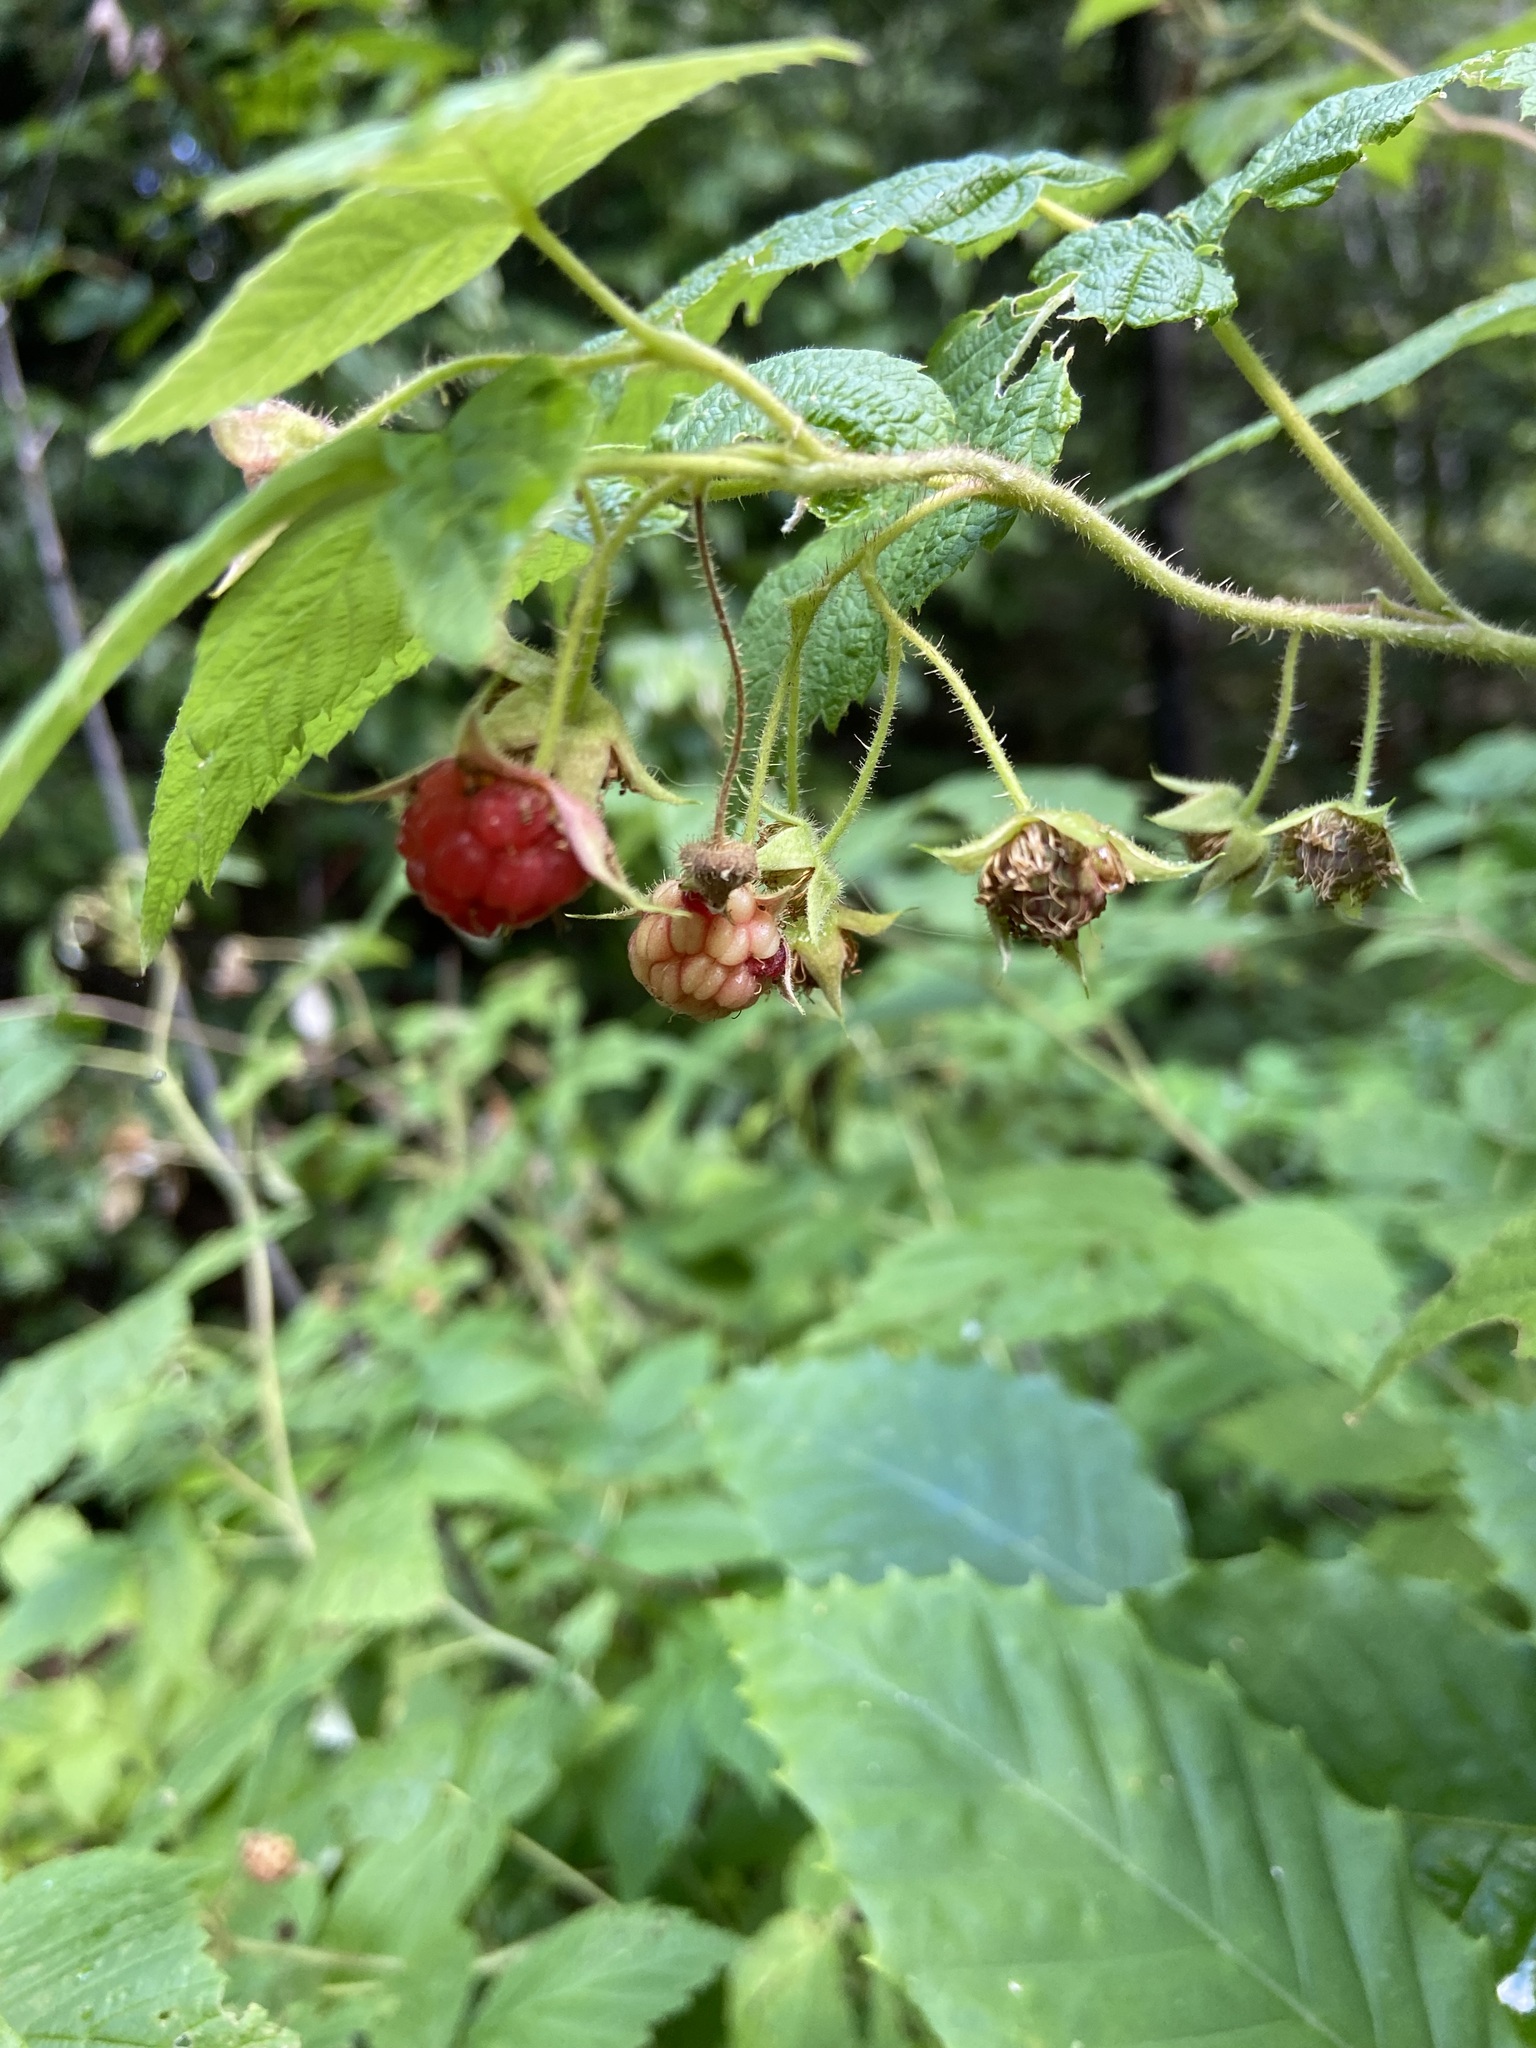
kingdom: Plantae
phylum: Tracheophyta
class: Magnoliopsida
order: Rosales
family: Rosaceae
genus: Rubus
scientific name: Rubus idaeus
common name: Raspberry
